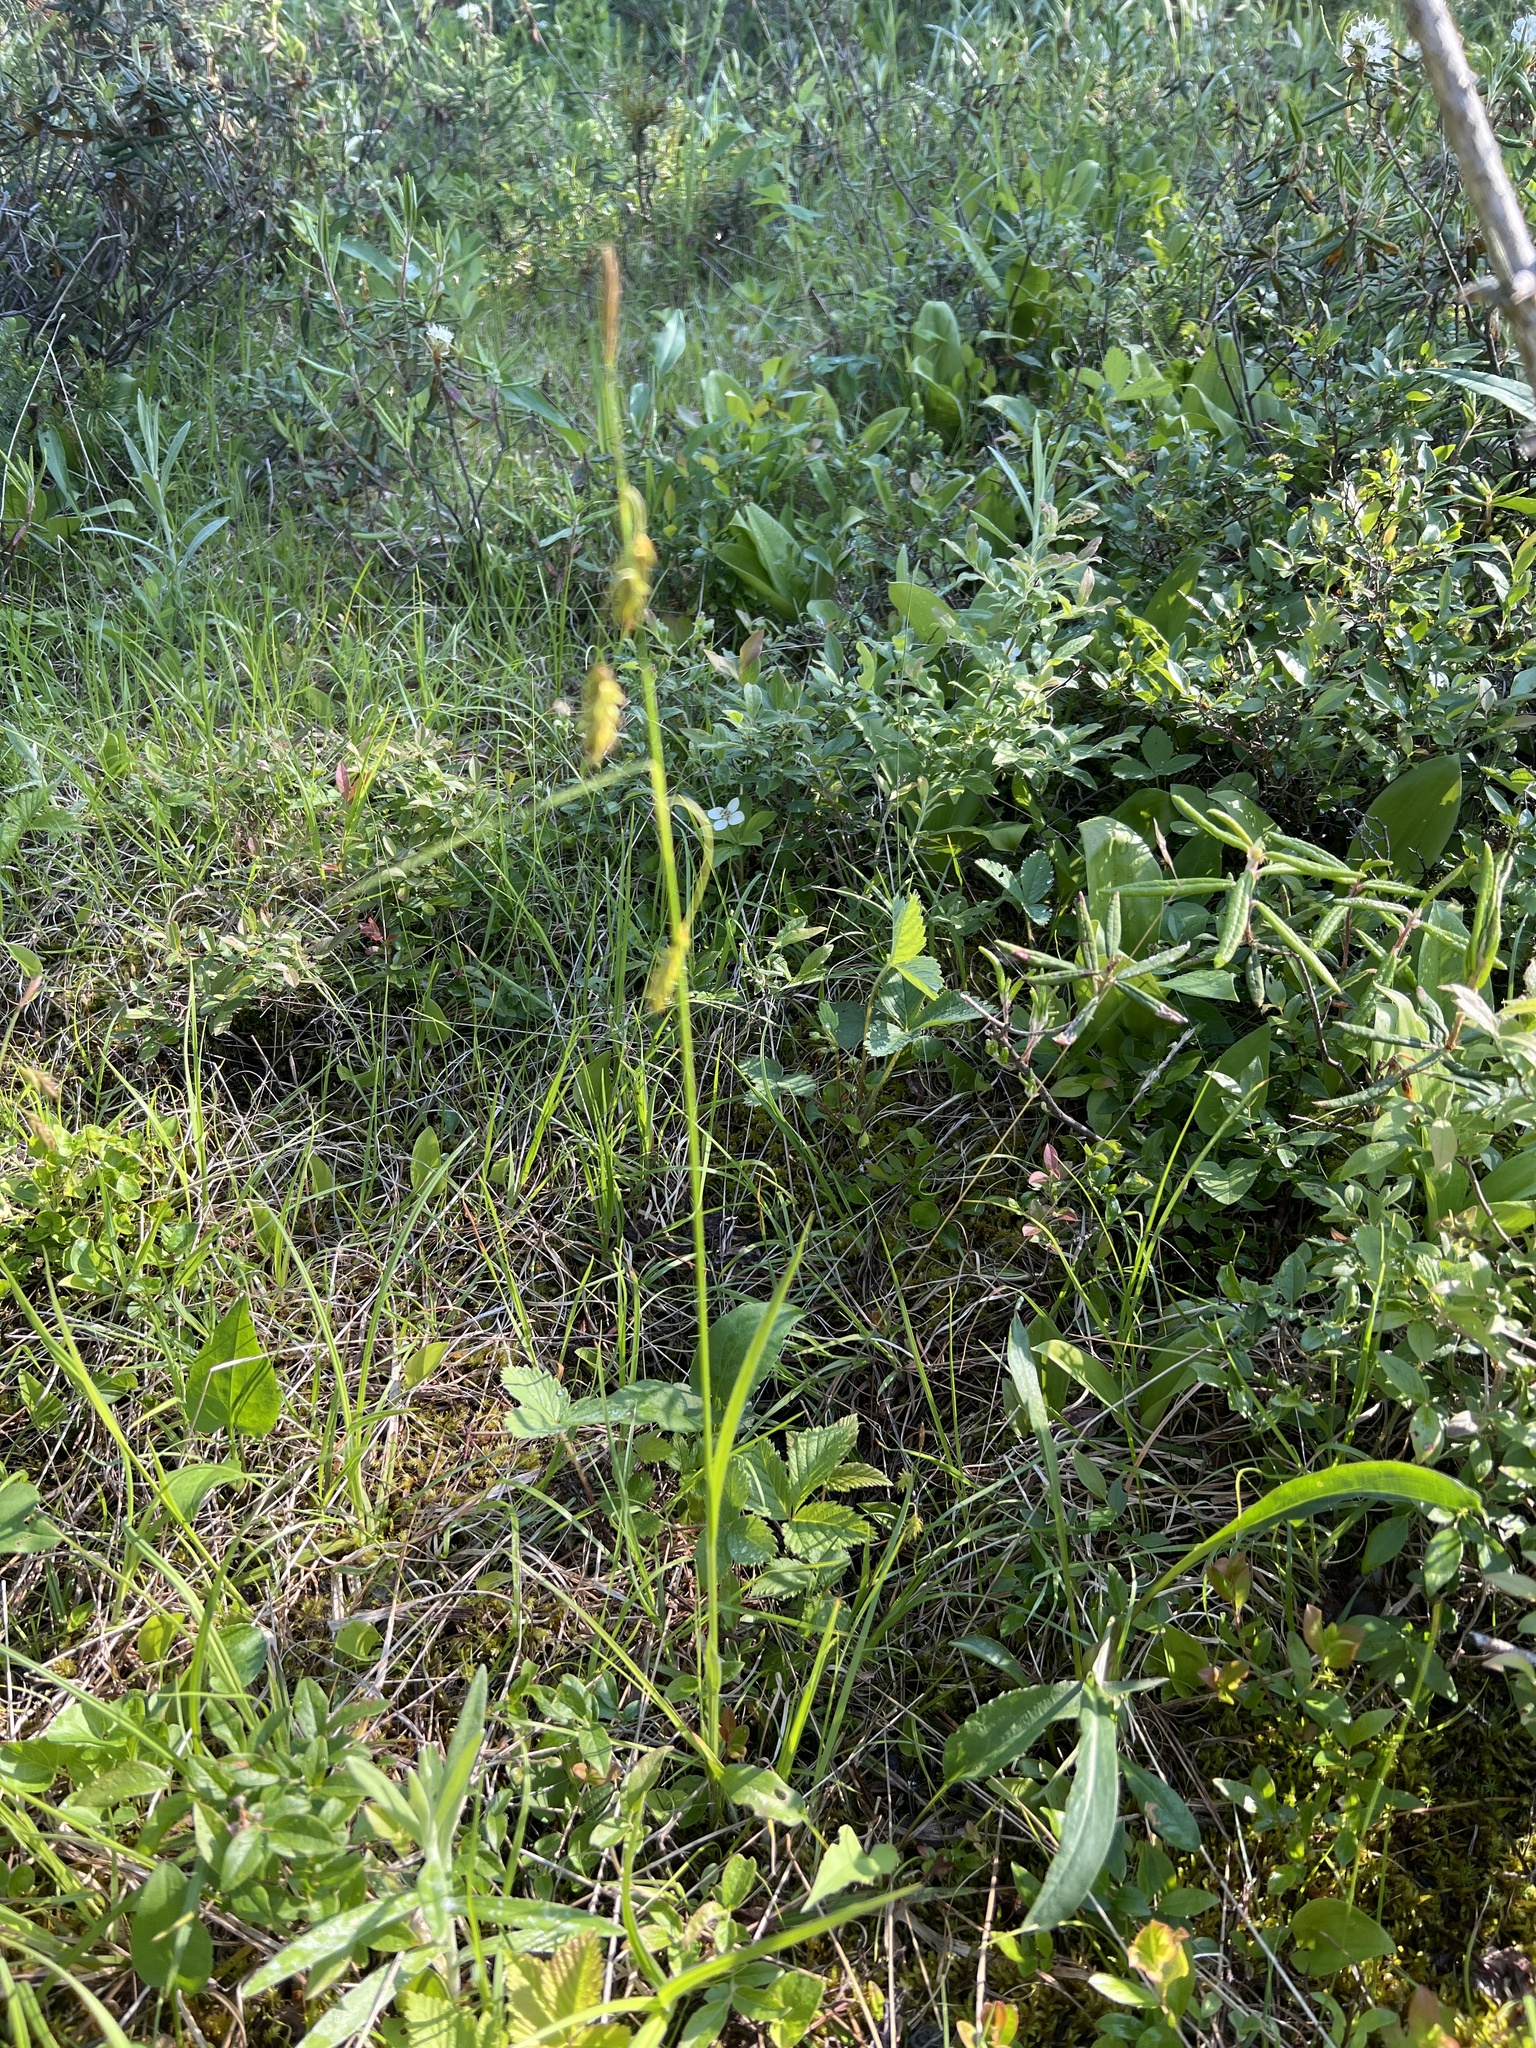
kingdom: Plantae
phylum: Tracheophyta
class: Liliopsida
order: Poales
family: Cyperaceae
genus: Carex
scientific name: Carex castanea
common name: Chestnut sedge
